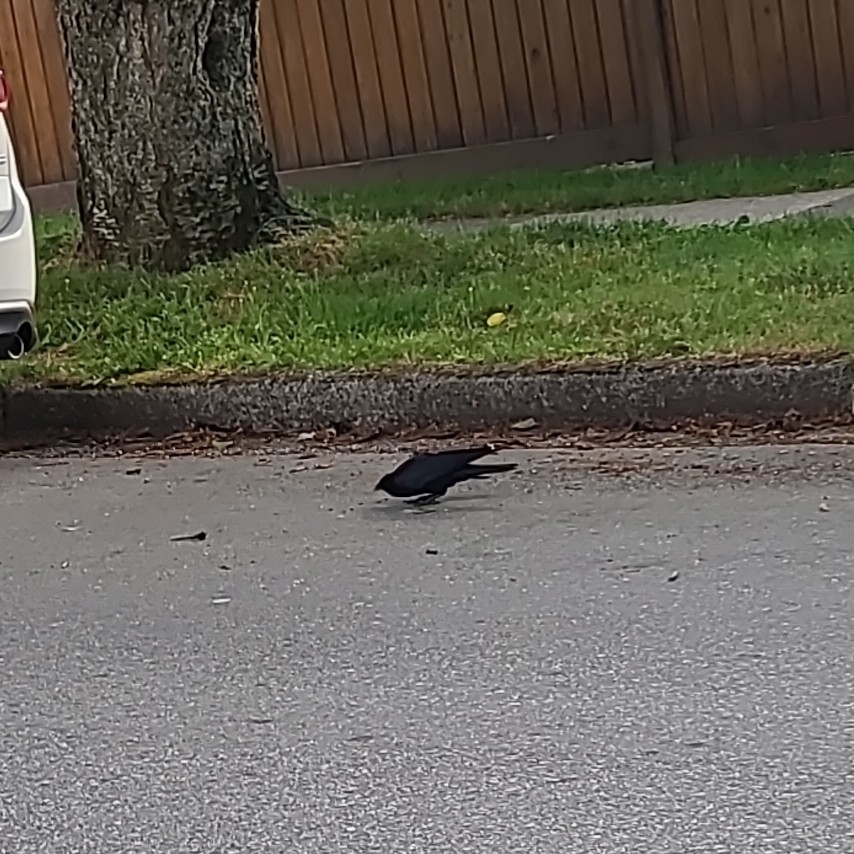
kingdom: Animalia
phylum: Chordata
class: Aves
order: Passeriformes
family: Corvidae
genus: Corvus
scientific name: Corvus brachyrhynchos
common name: American crow
